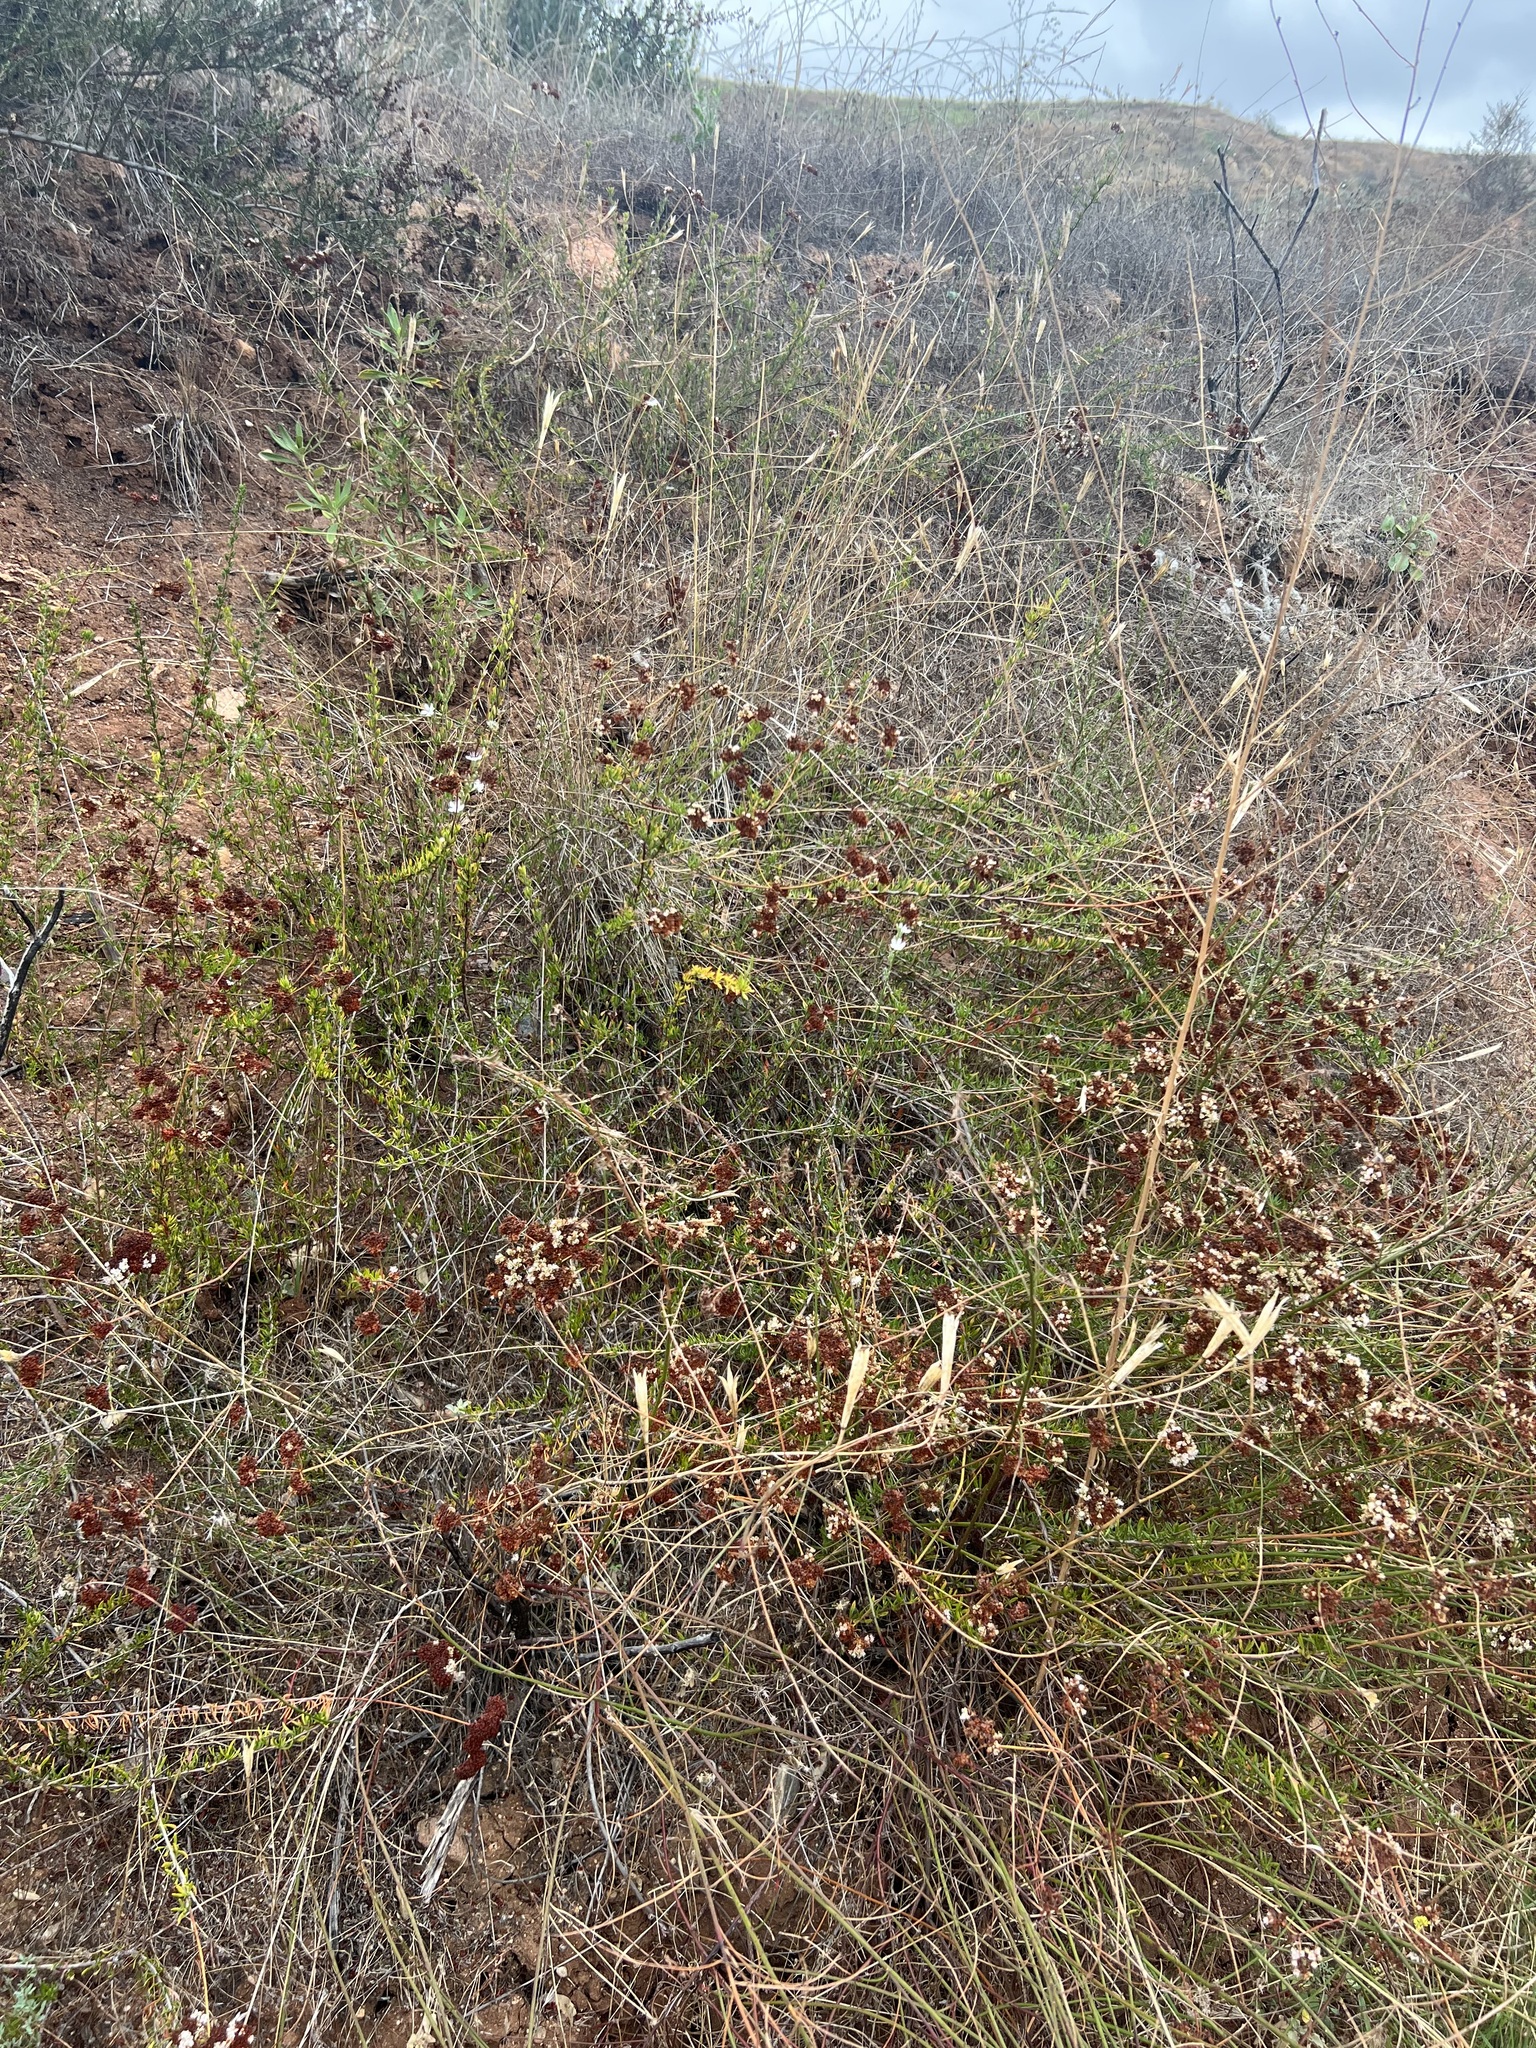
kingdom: Plantae
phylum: Tracheophyta
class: Magnoliopsida
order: Caryophyllales
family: Polygonaceae
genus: Eriogonum
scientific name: Eriogonum fasciculatum
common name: California wild buckwheat
